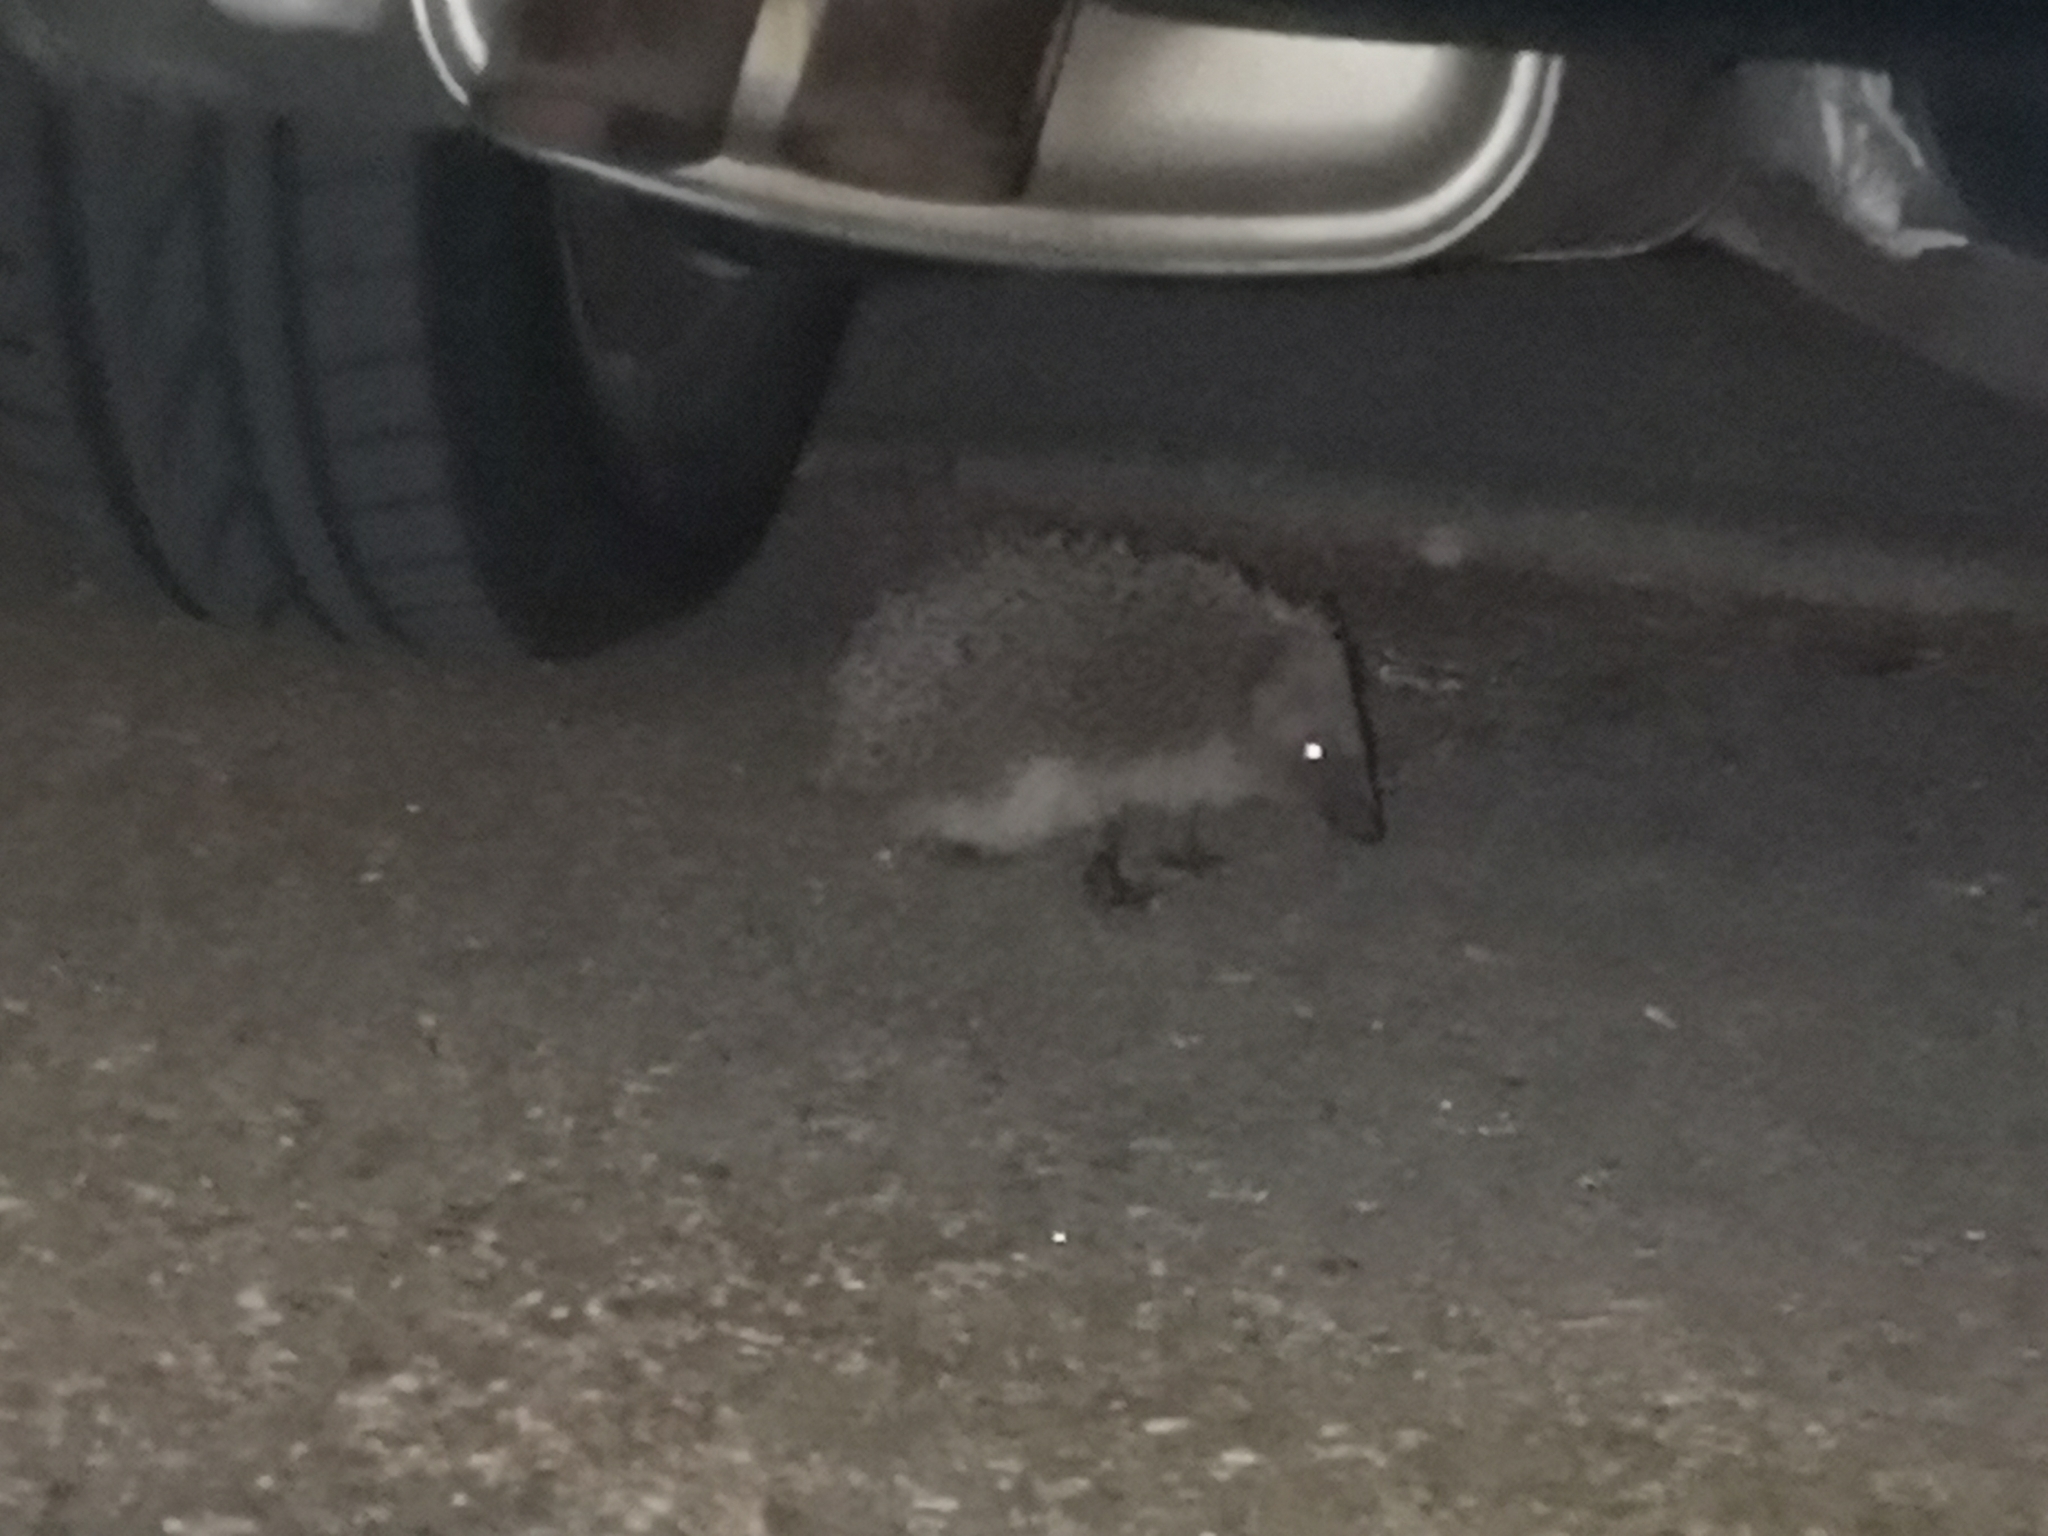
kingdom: Animalia
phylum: Chordata
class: Mammalia
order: Erinaceomorpha
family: Erinaceidae
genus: Erinaceus
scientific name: Erinaceus europaeus
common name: West european hedgehog
